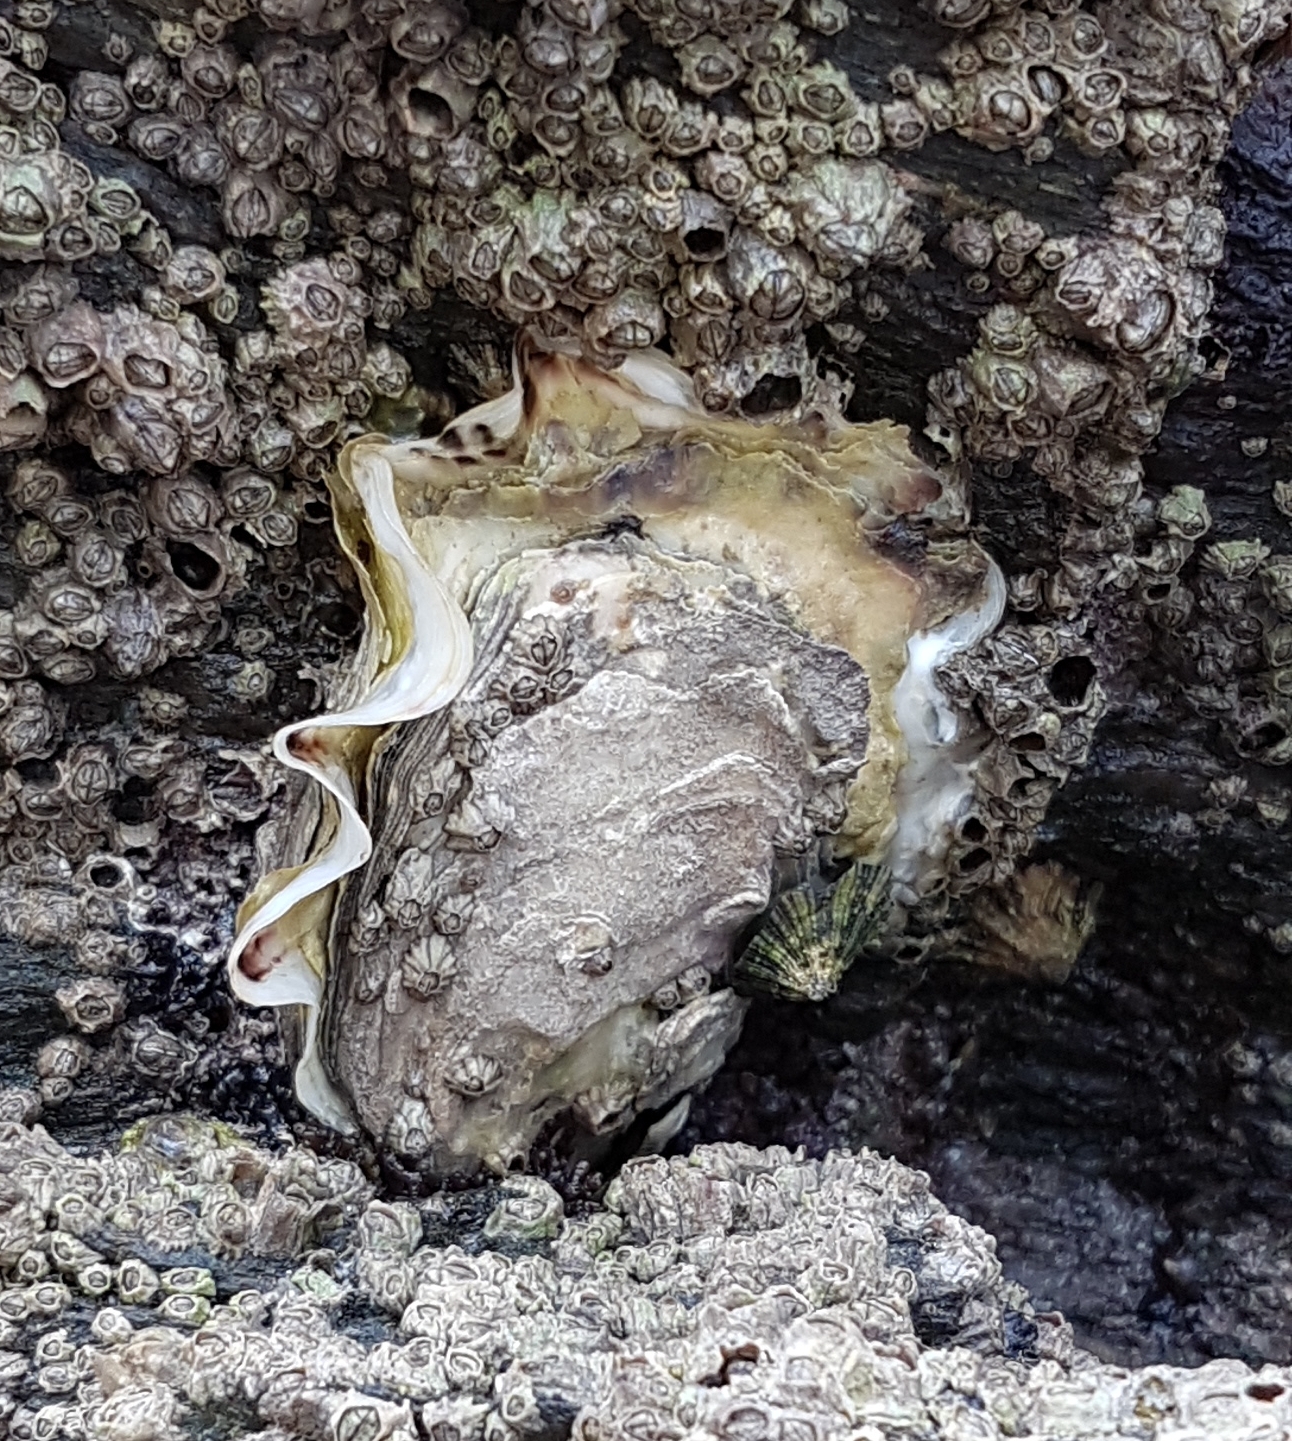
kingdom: Animalia
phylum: Mollusca
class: Bivalvia
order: Ostreida
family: Ostreidae
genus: Magallana
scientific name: Magallana gigas
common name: Pacific oyster
